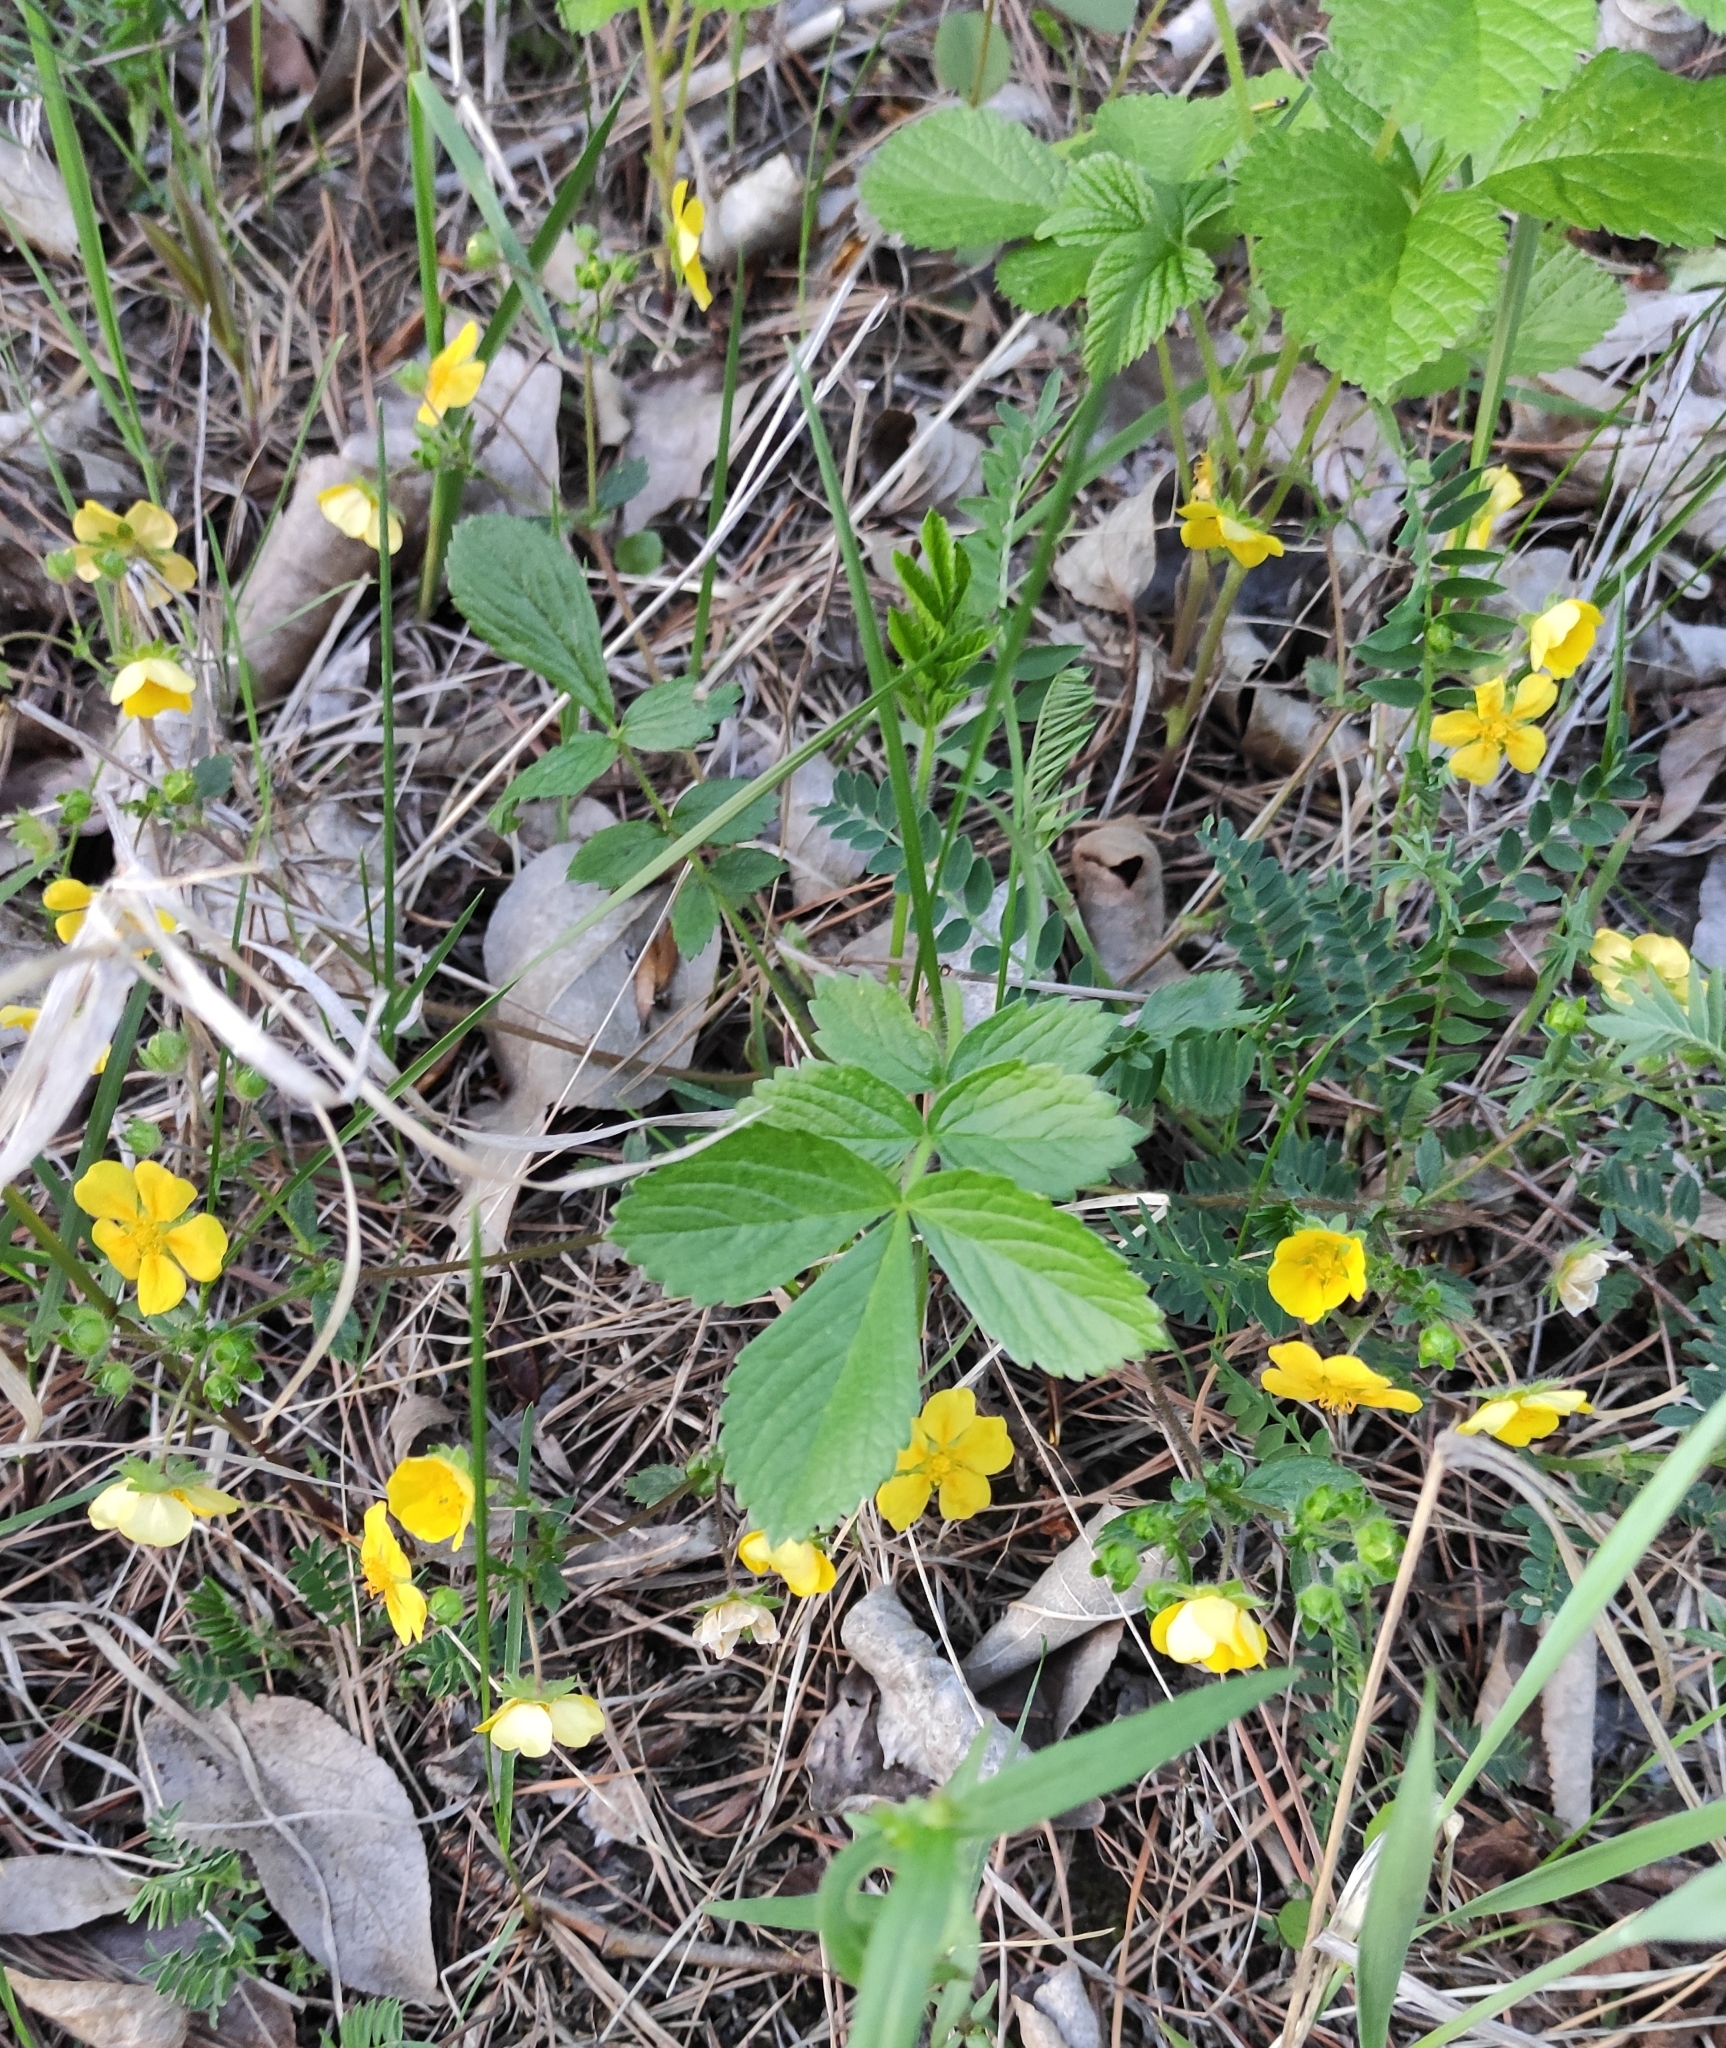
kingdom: Plantae
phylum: Tracheophyta
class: Magnoliopsida
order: Rosales
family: Rosaceae
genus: Potentilla
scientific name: Potentilla fragarioides
